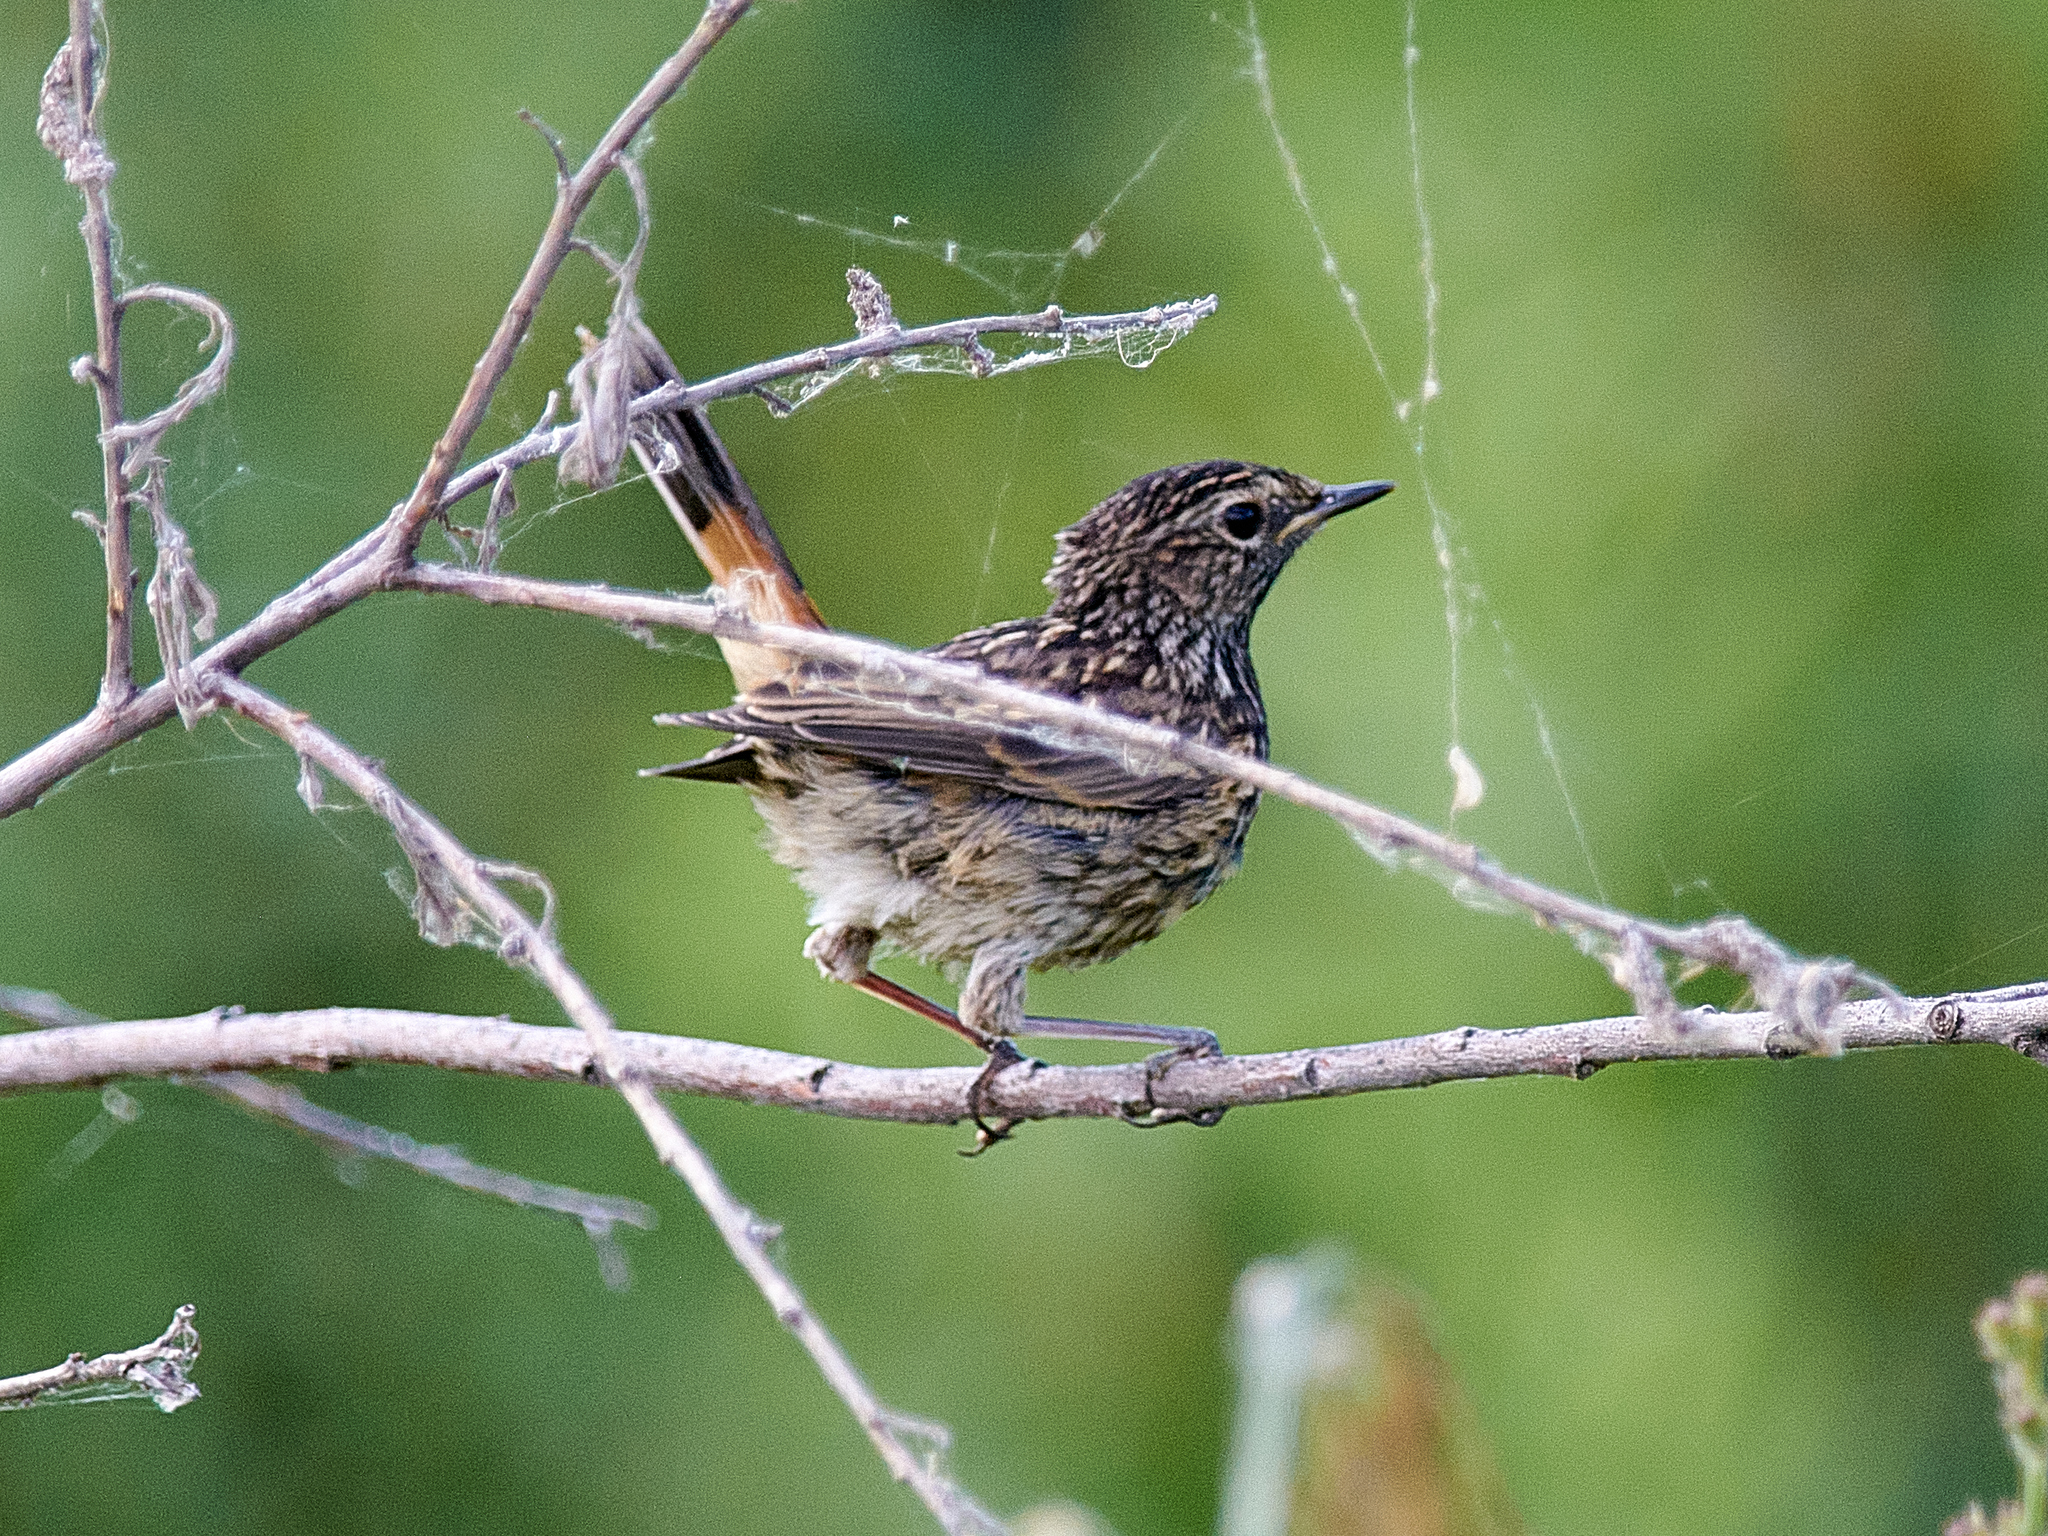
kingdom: Animalia
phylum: Chordata
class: Aves
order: Passeriformes
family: Muscicapidae
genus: Luscinia
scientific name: Luscinia svecica
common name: Bluethroat
